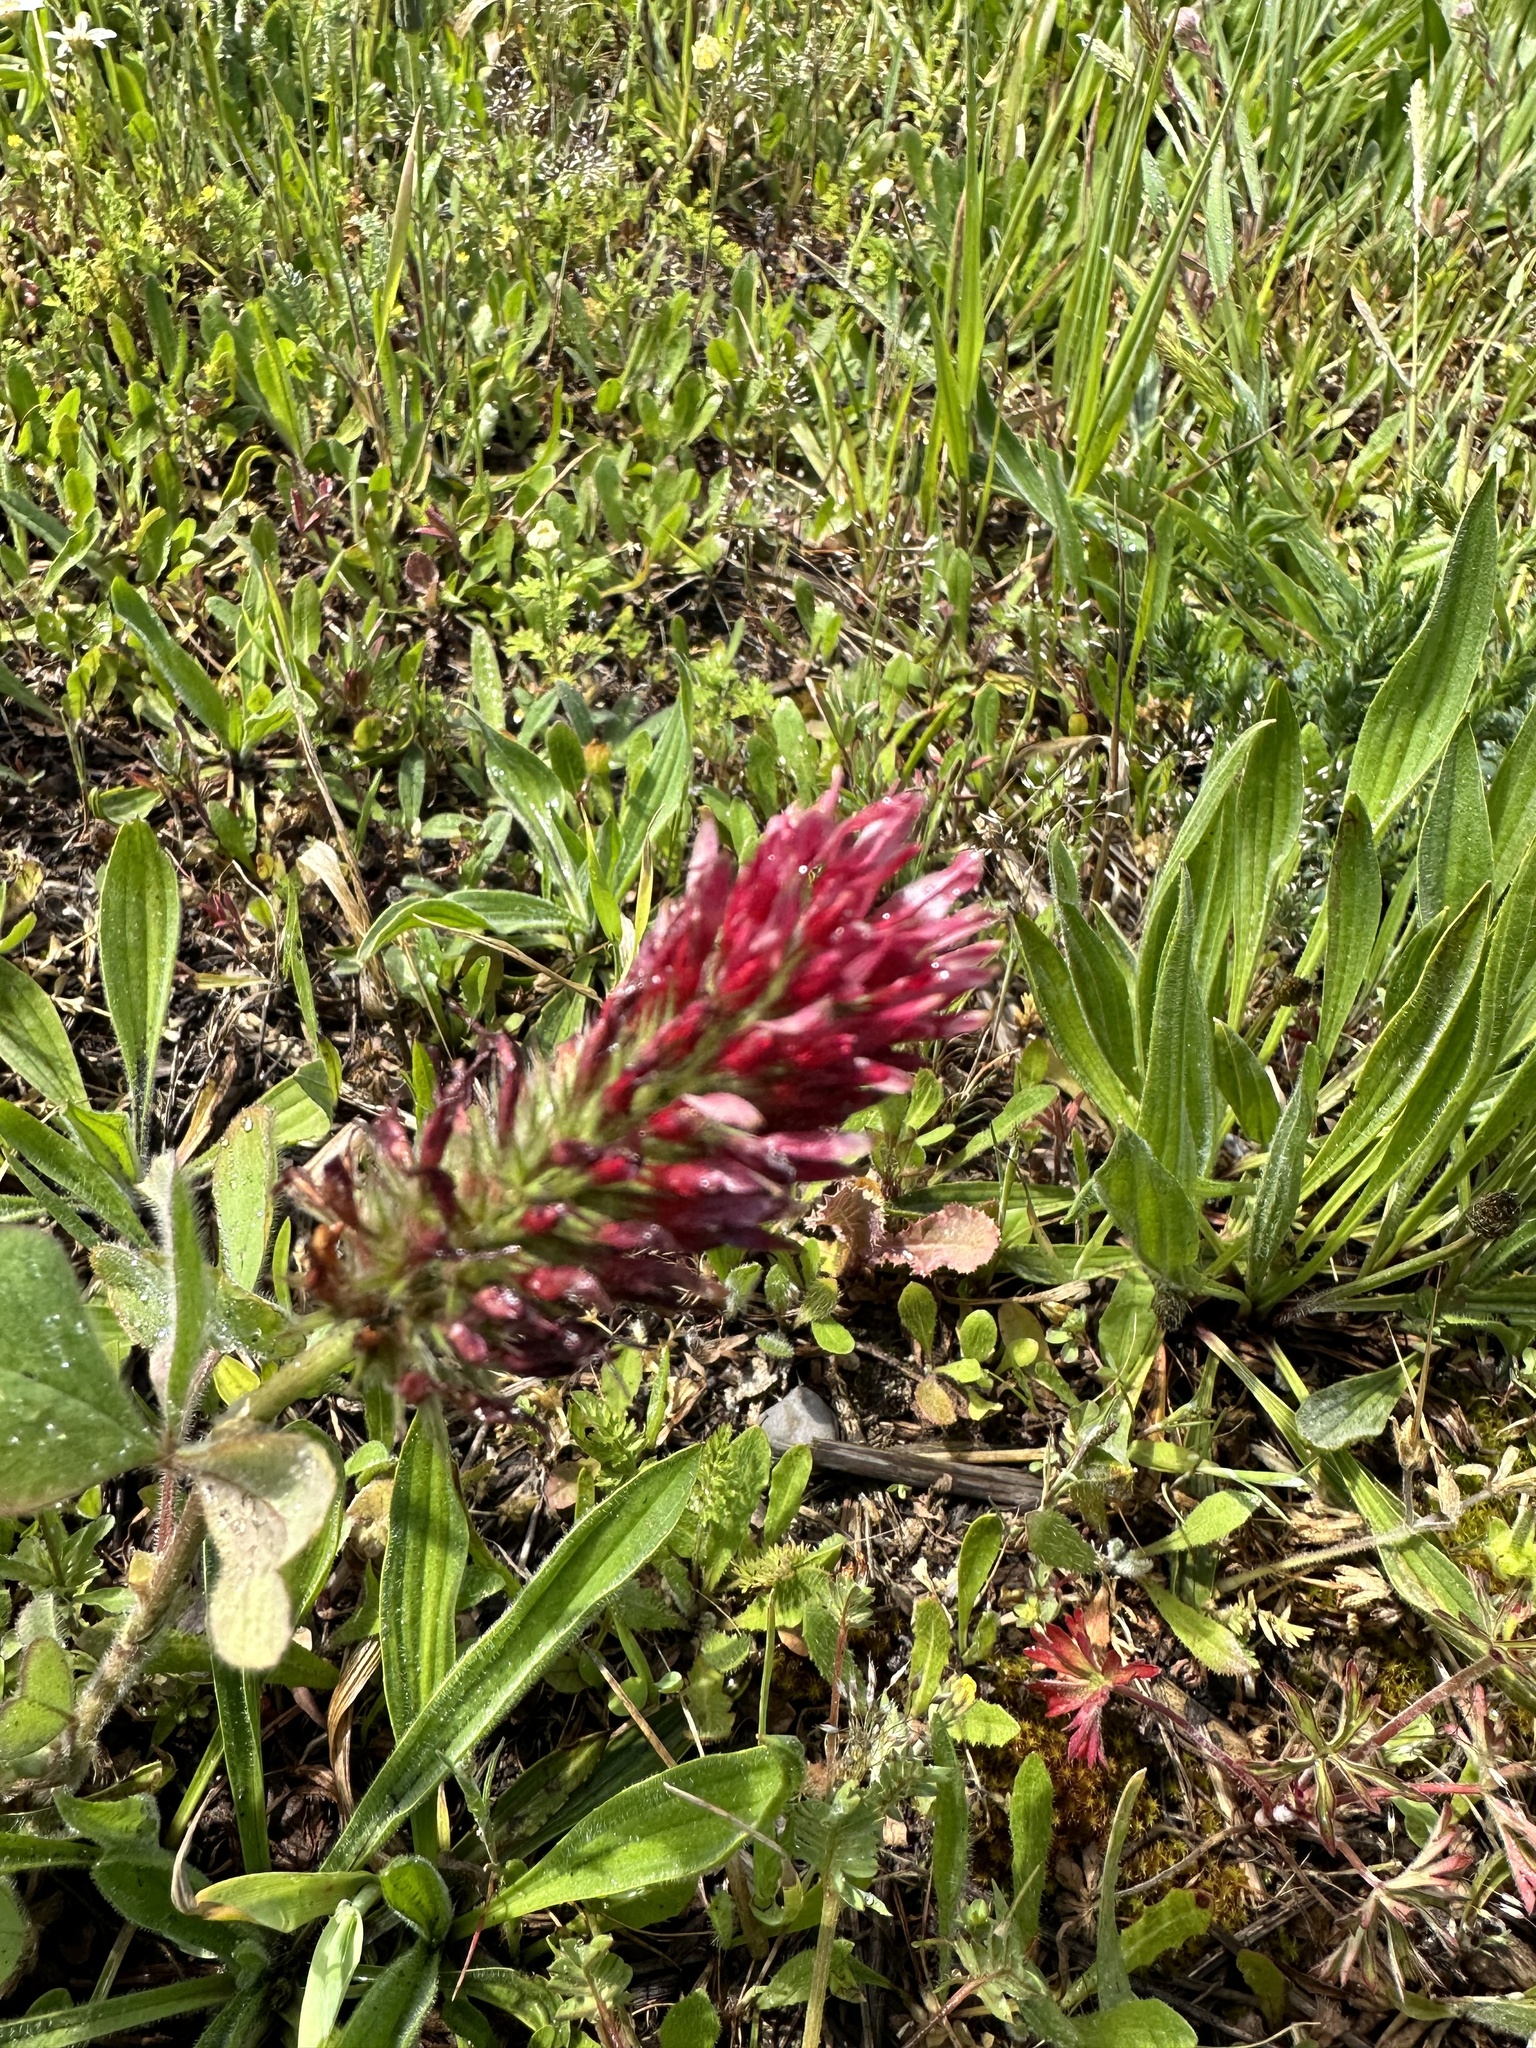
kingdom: Plantae
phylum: Tracheophyta
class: Magnoliopsida
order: Fabales
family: Fabaceae
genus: Trifolium
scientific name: Trifolium incarnatum
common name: Crimson clover
